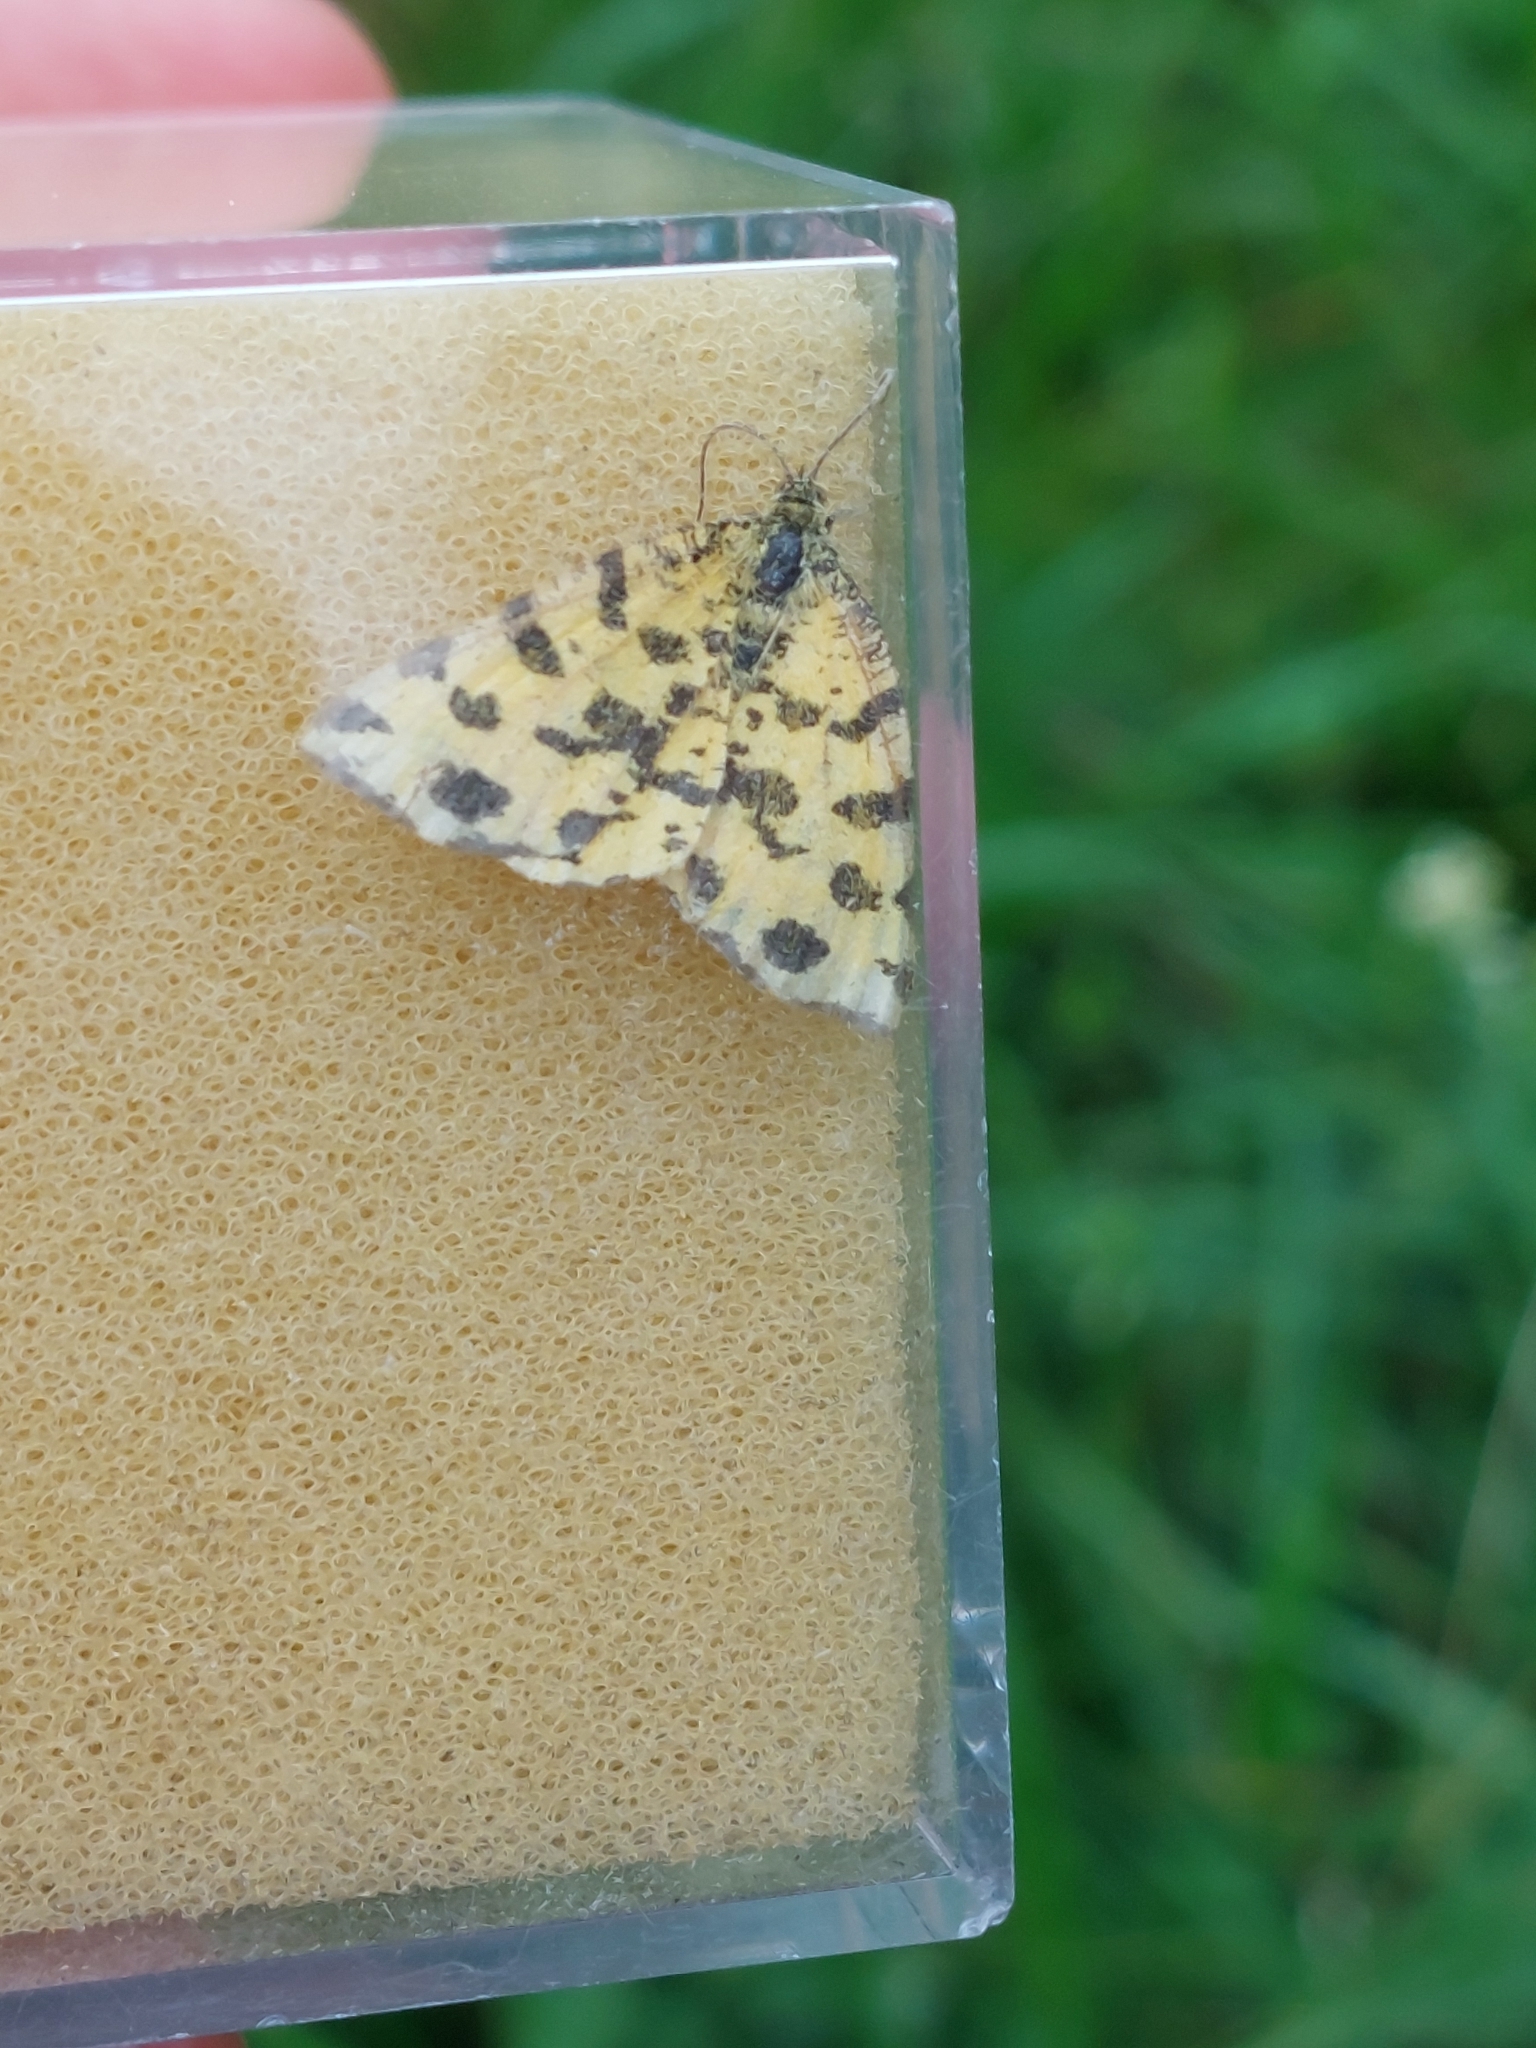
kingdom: Animalia
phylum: Arthropoda
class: Insecta
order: Lepidoptera
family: Geometridae
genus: Pseudopanthera
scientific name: Pseudopanthera macularia
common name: Speckled yellow
